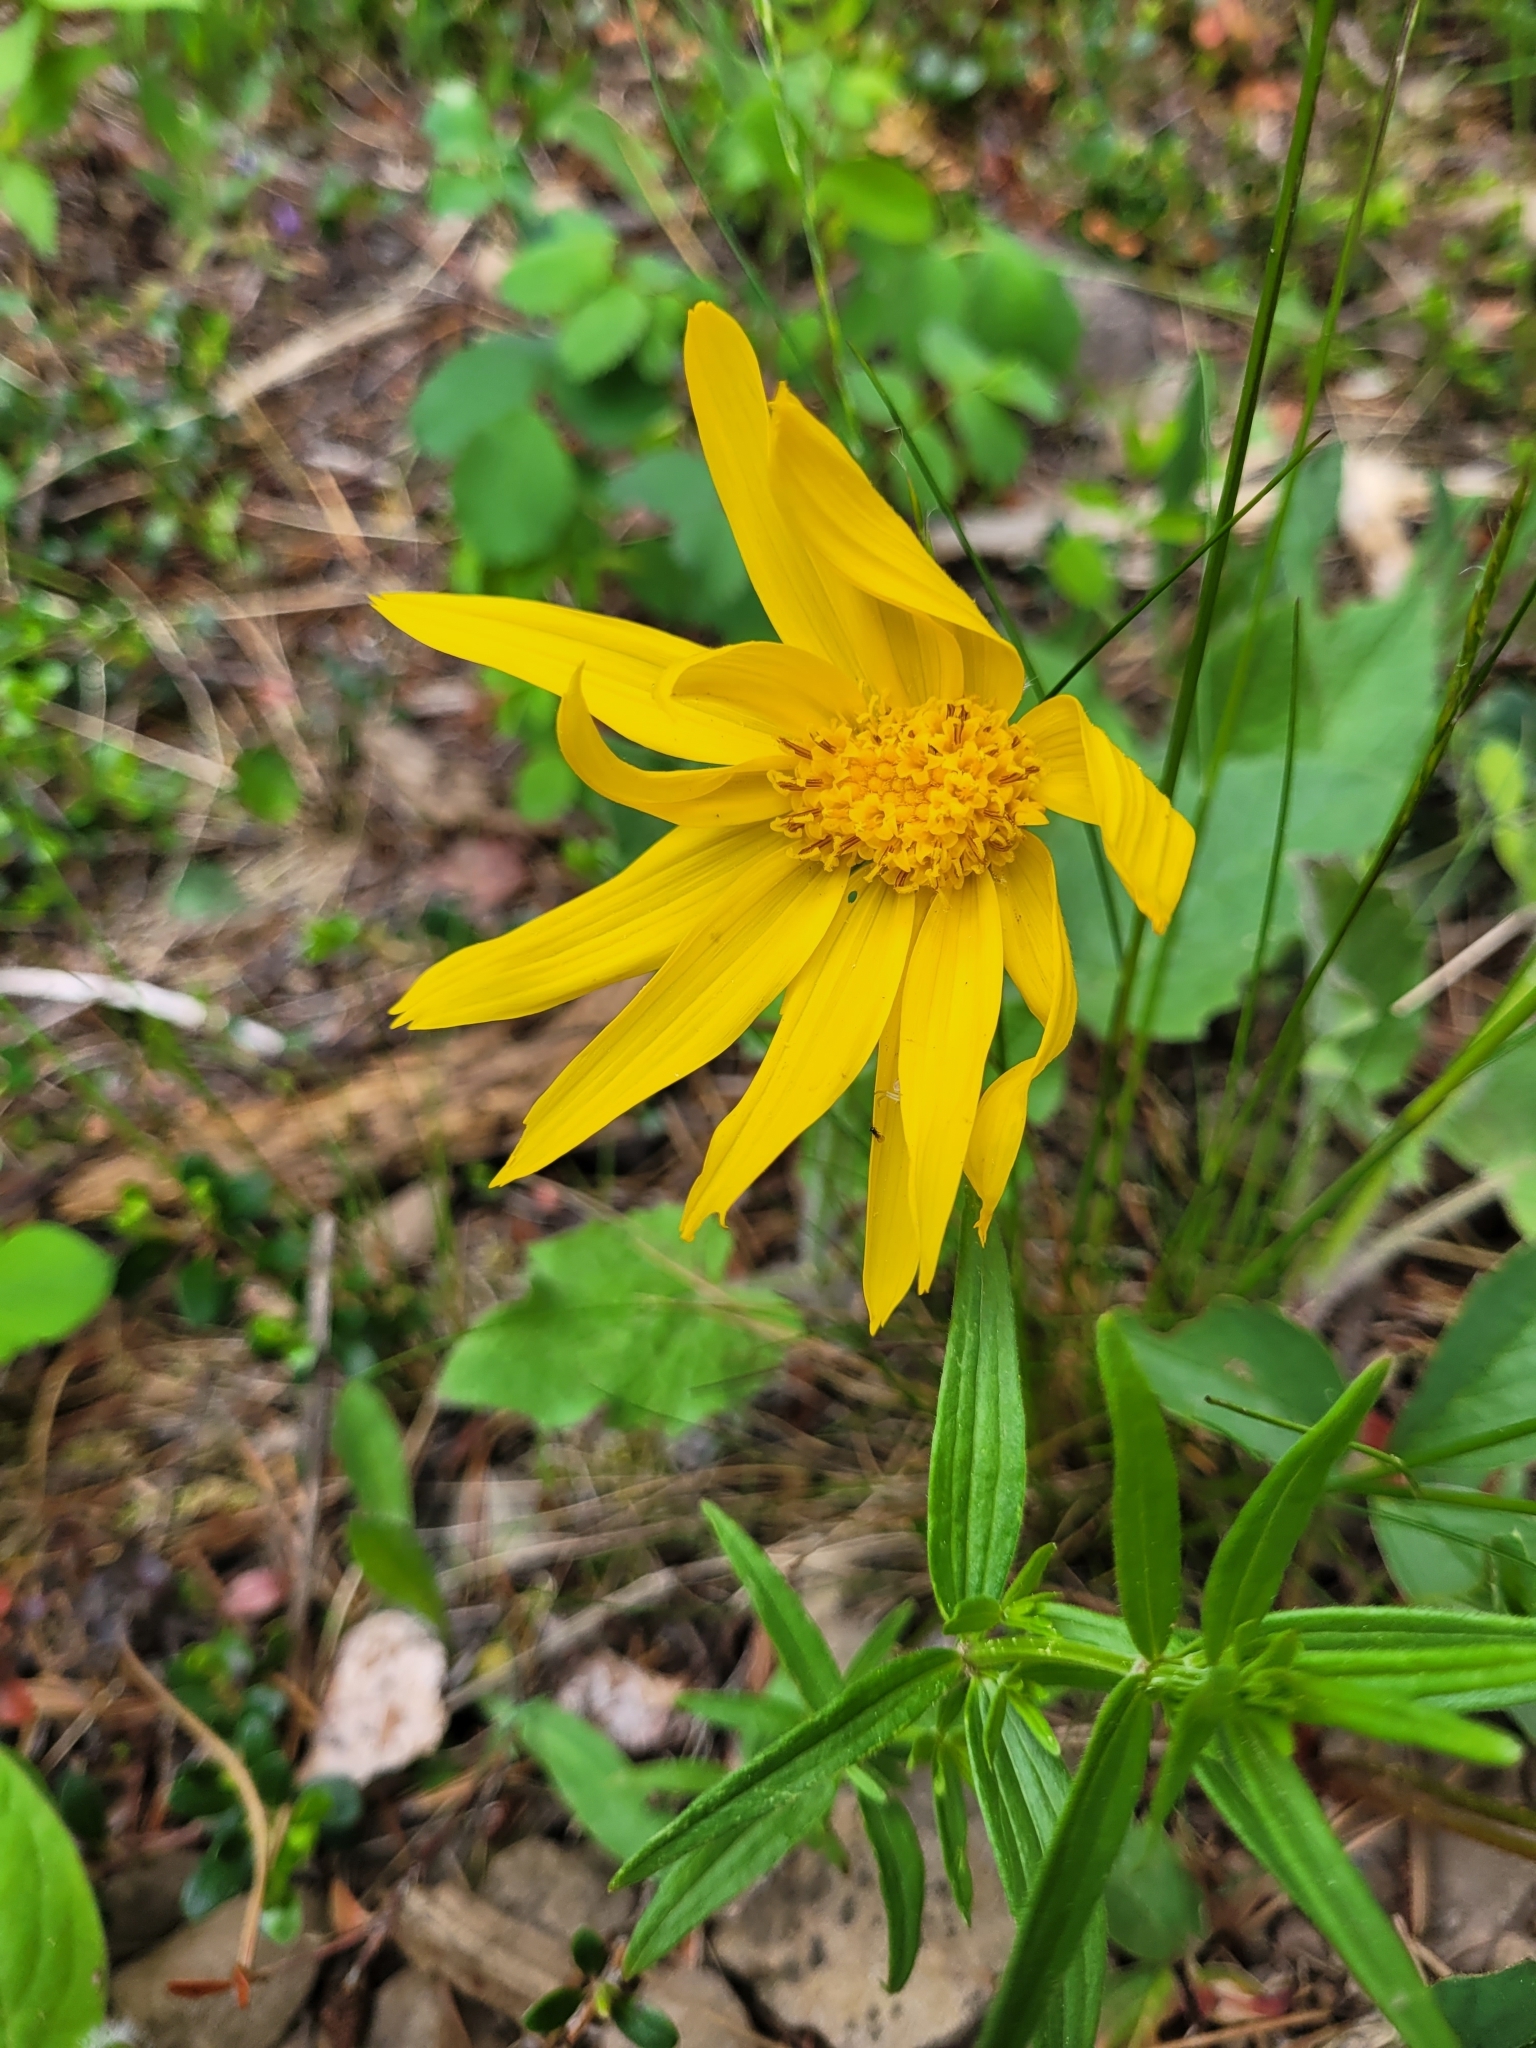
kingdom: Plantae
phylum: Tracheophyta
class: Magnoliopsida
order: Asterales
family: Asteraceae
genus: Arnica
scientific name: Arnica cordifolia
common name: Heart-leaf arnica
